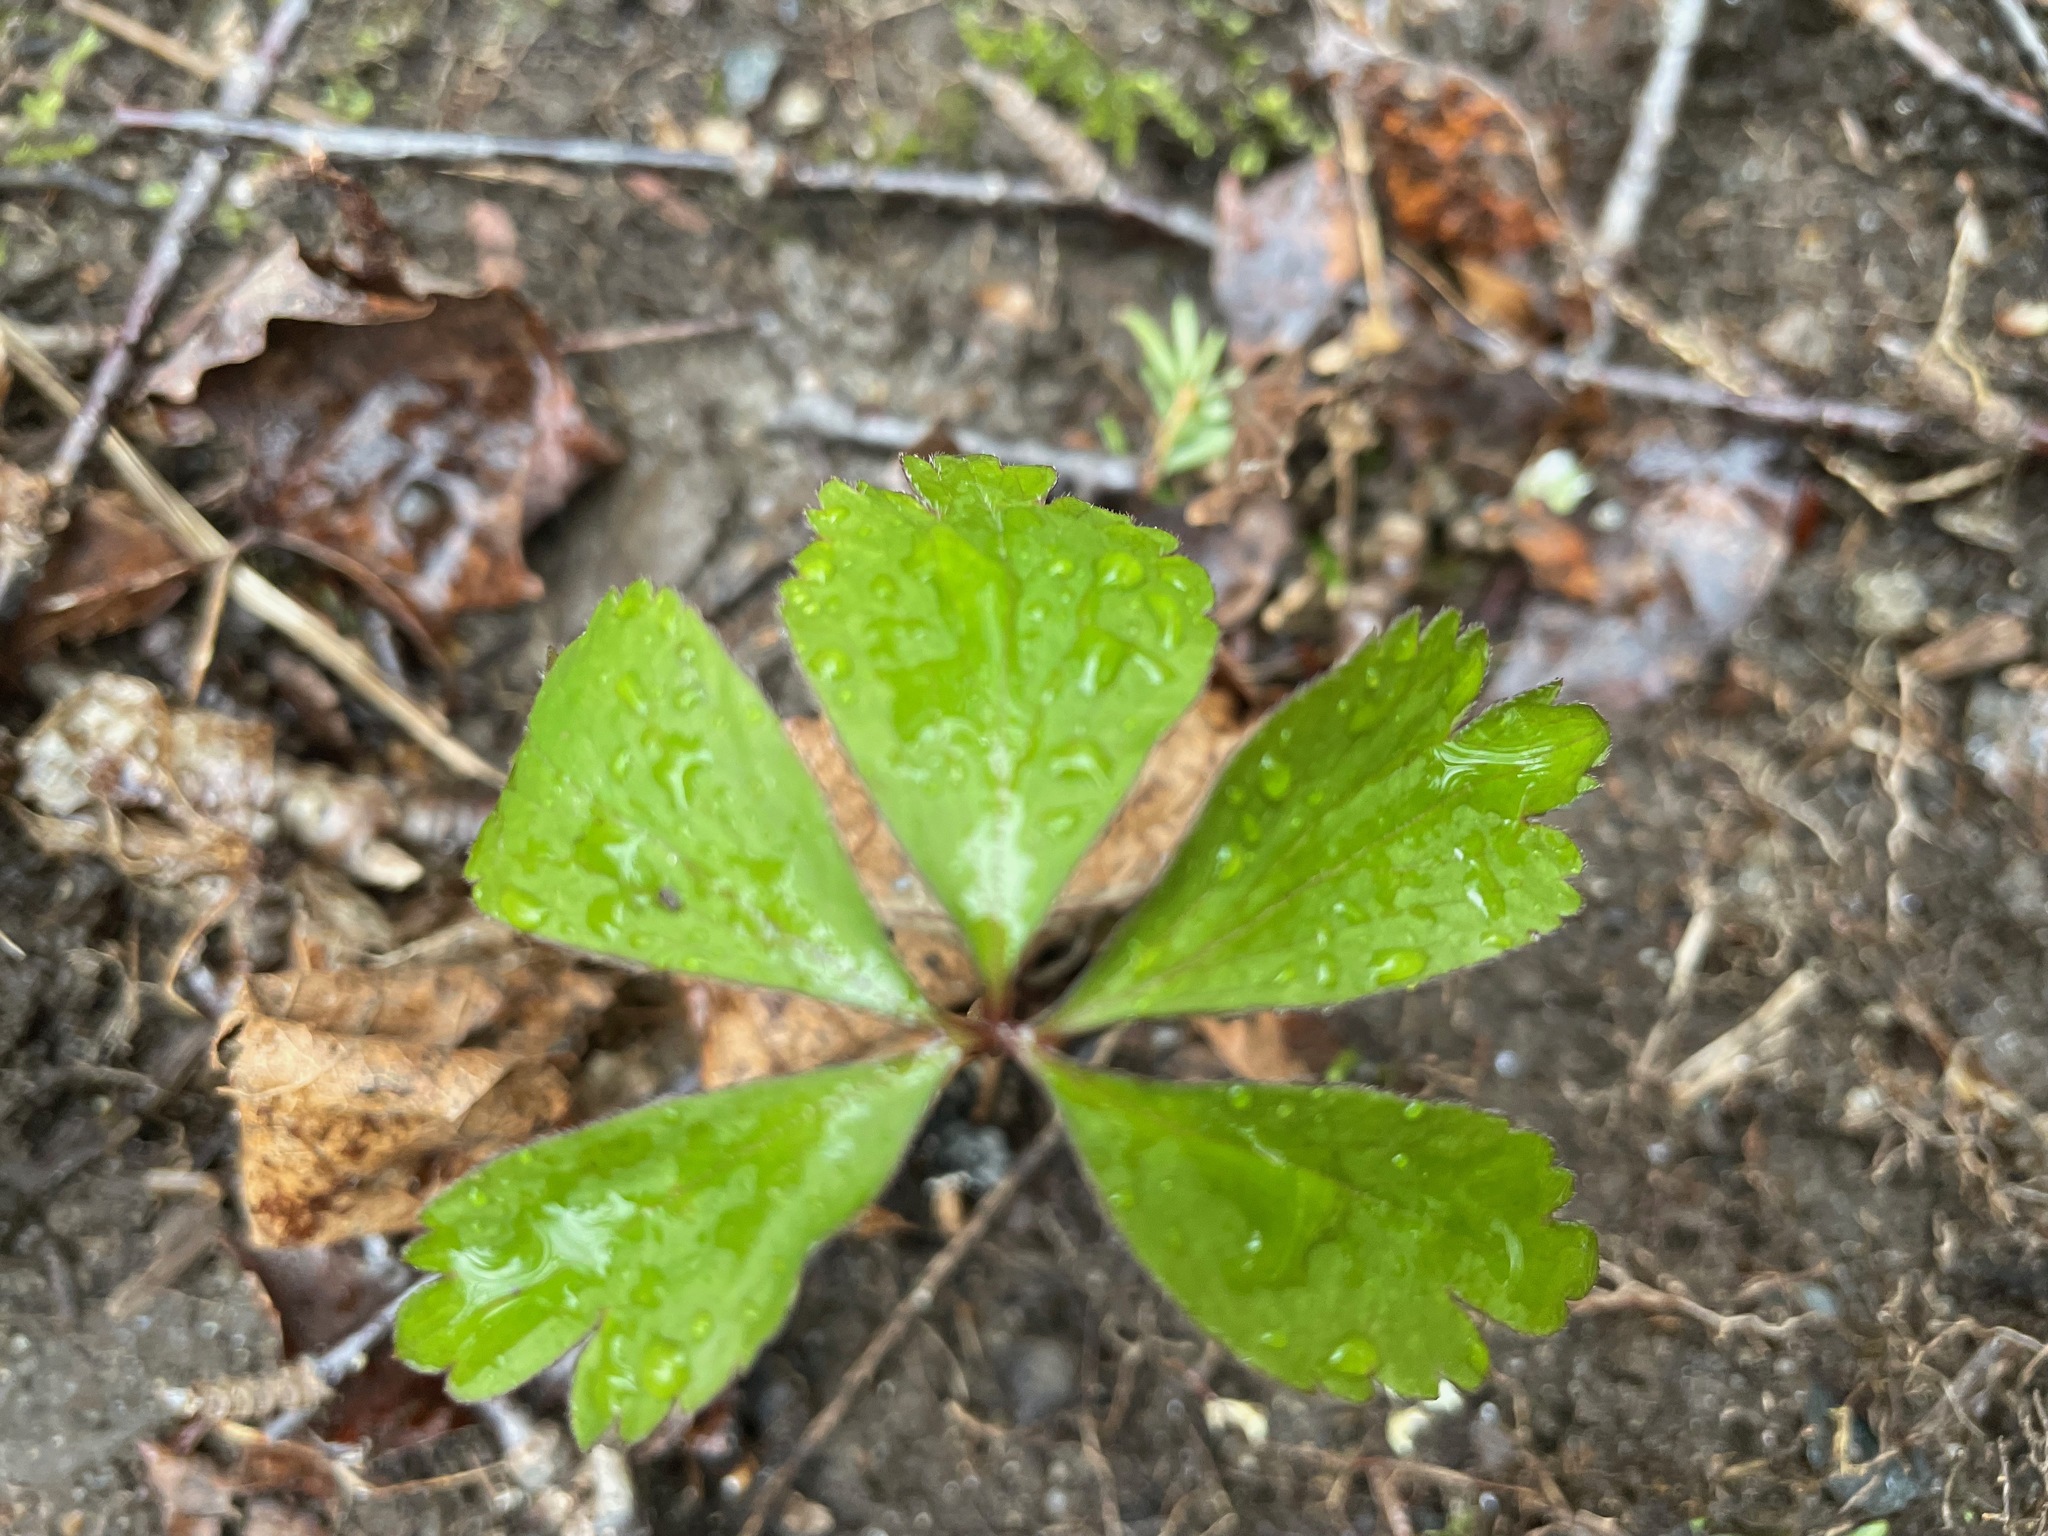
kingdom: Plantae
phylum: Tracheophyta
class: Magnoliopsida
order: Ranunculales
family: Ranunculaceae
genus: Anemone
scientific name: Anemone quinquefolia
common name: Wood anemone
